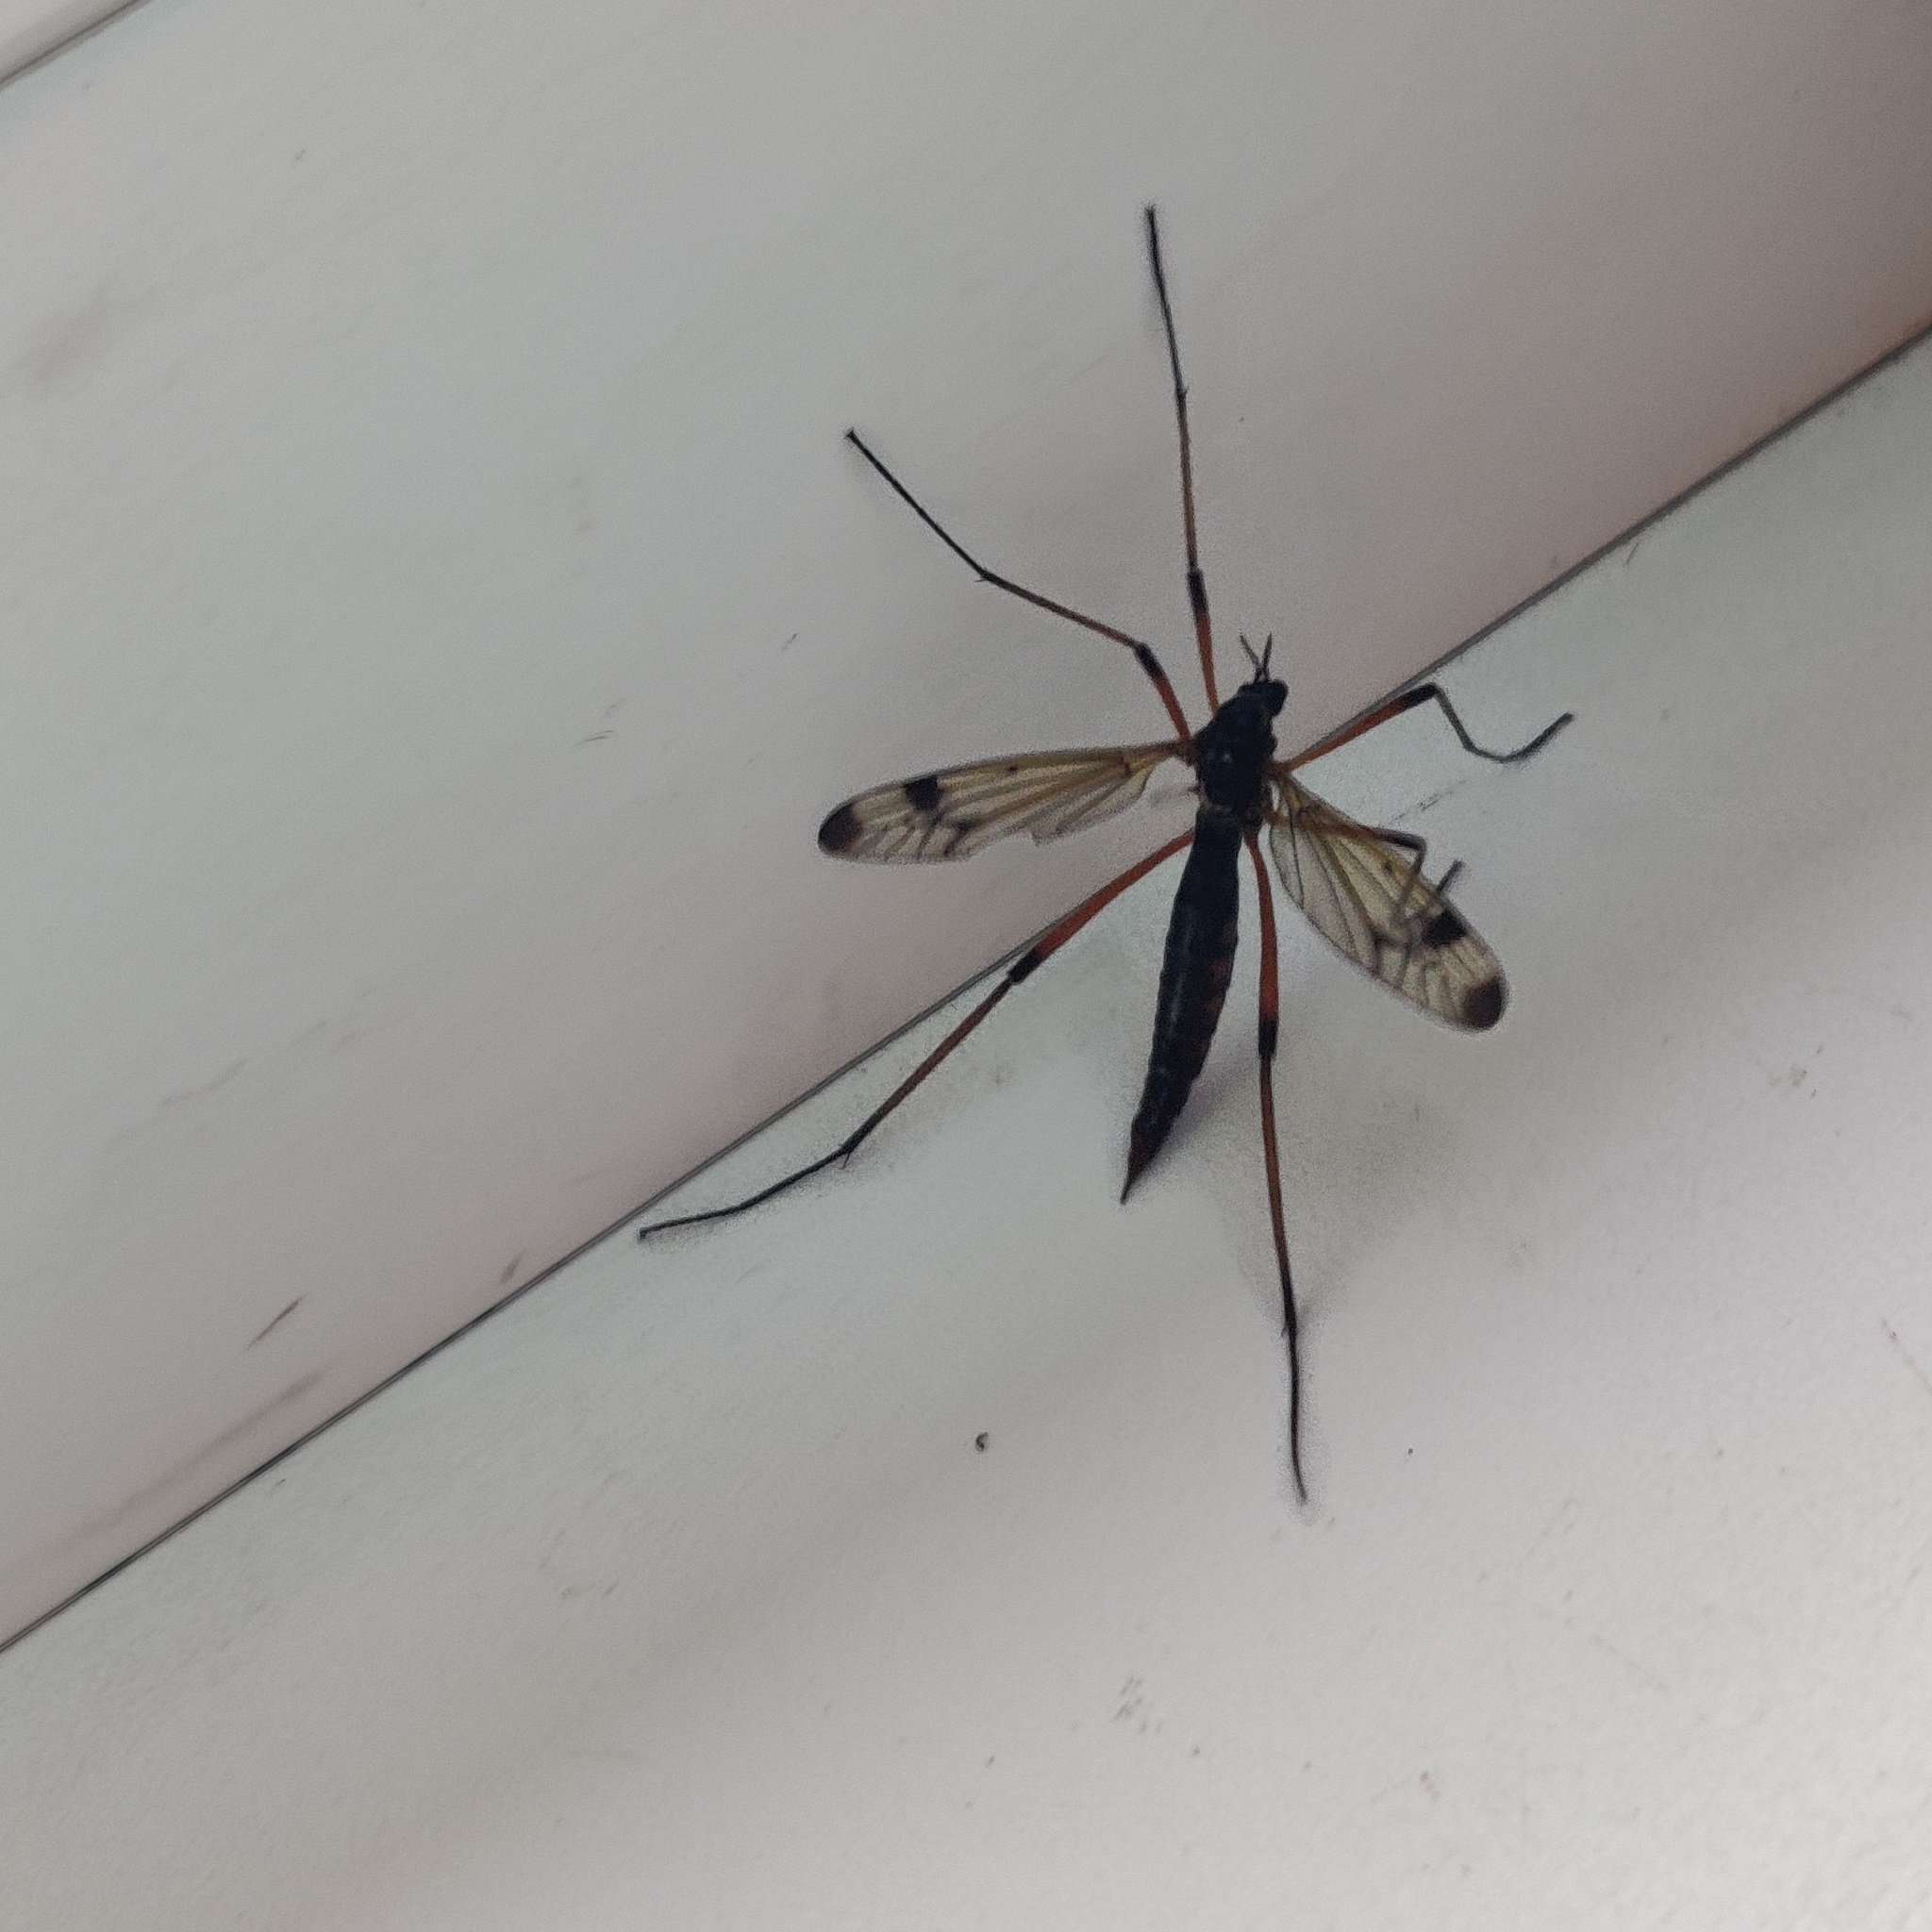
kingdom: Animalia
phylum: Arthropoda
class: Insecta
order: Diptera
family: Tipulidae
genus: Dictenidia
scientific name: Dictenidia bimaculata
